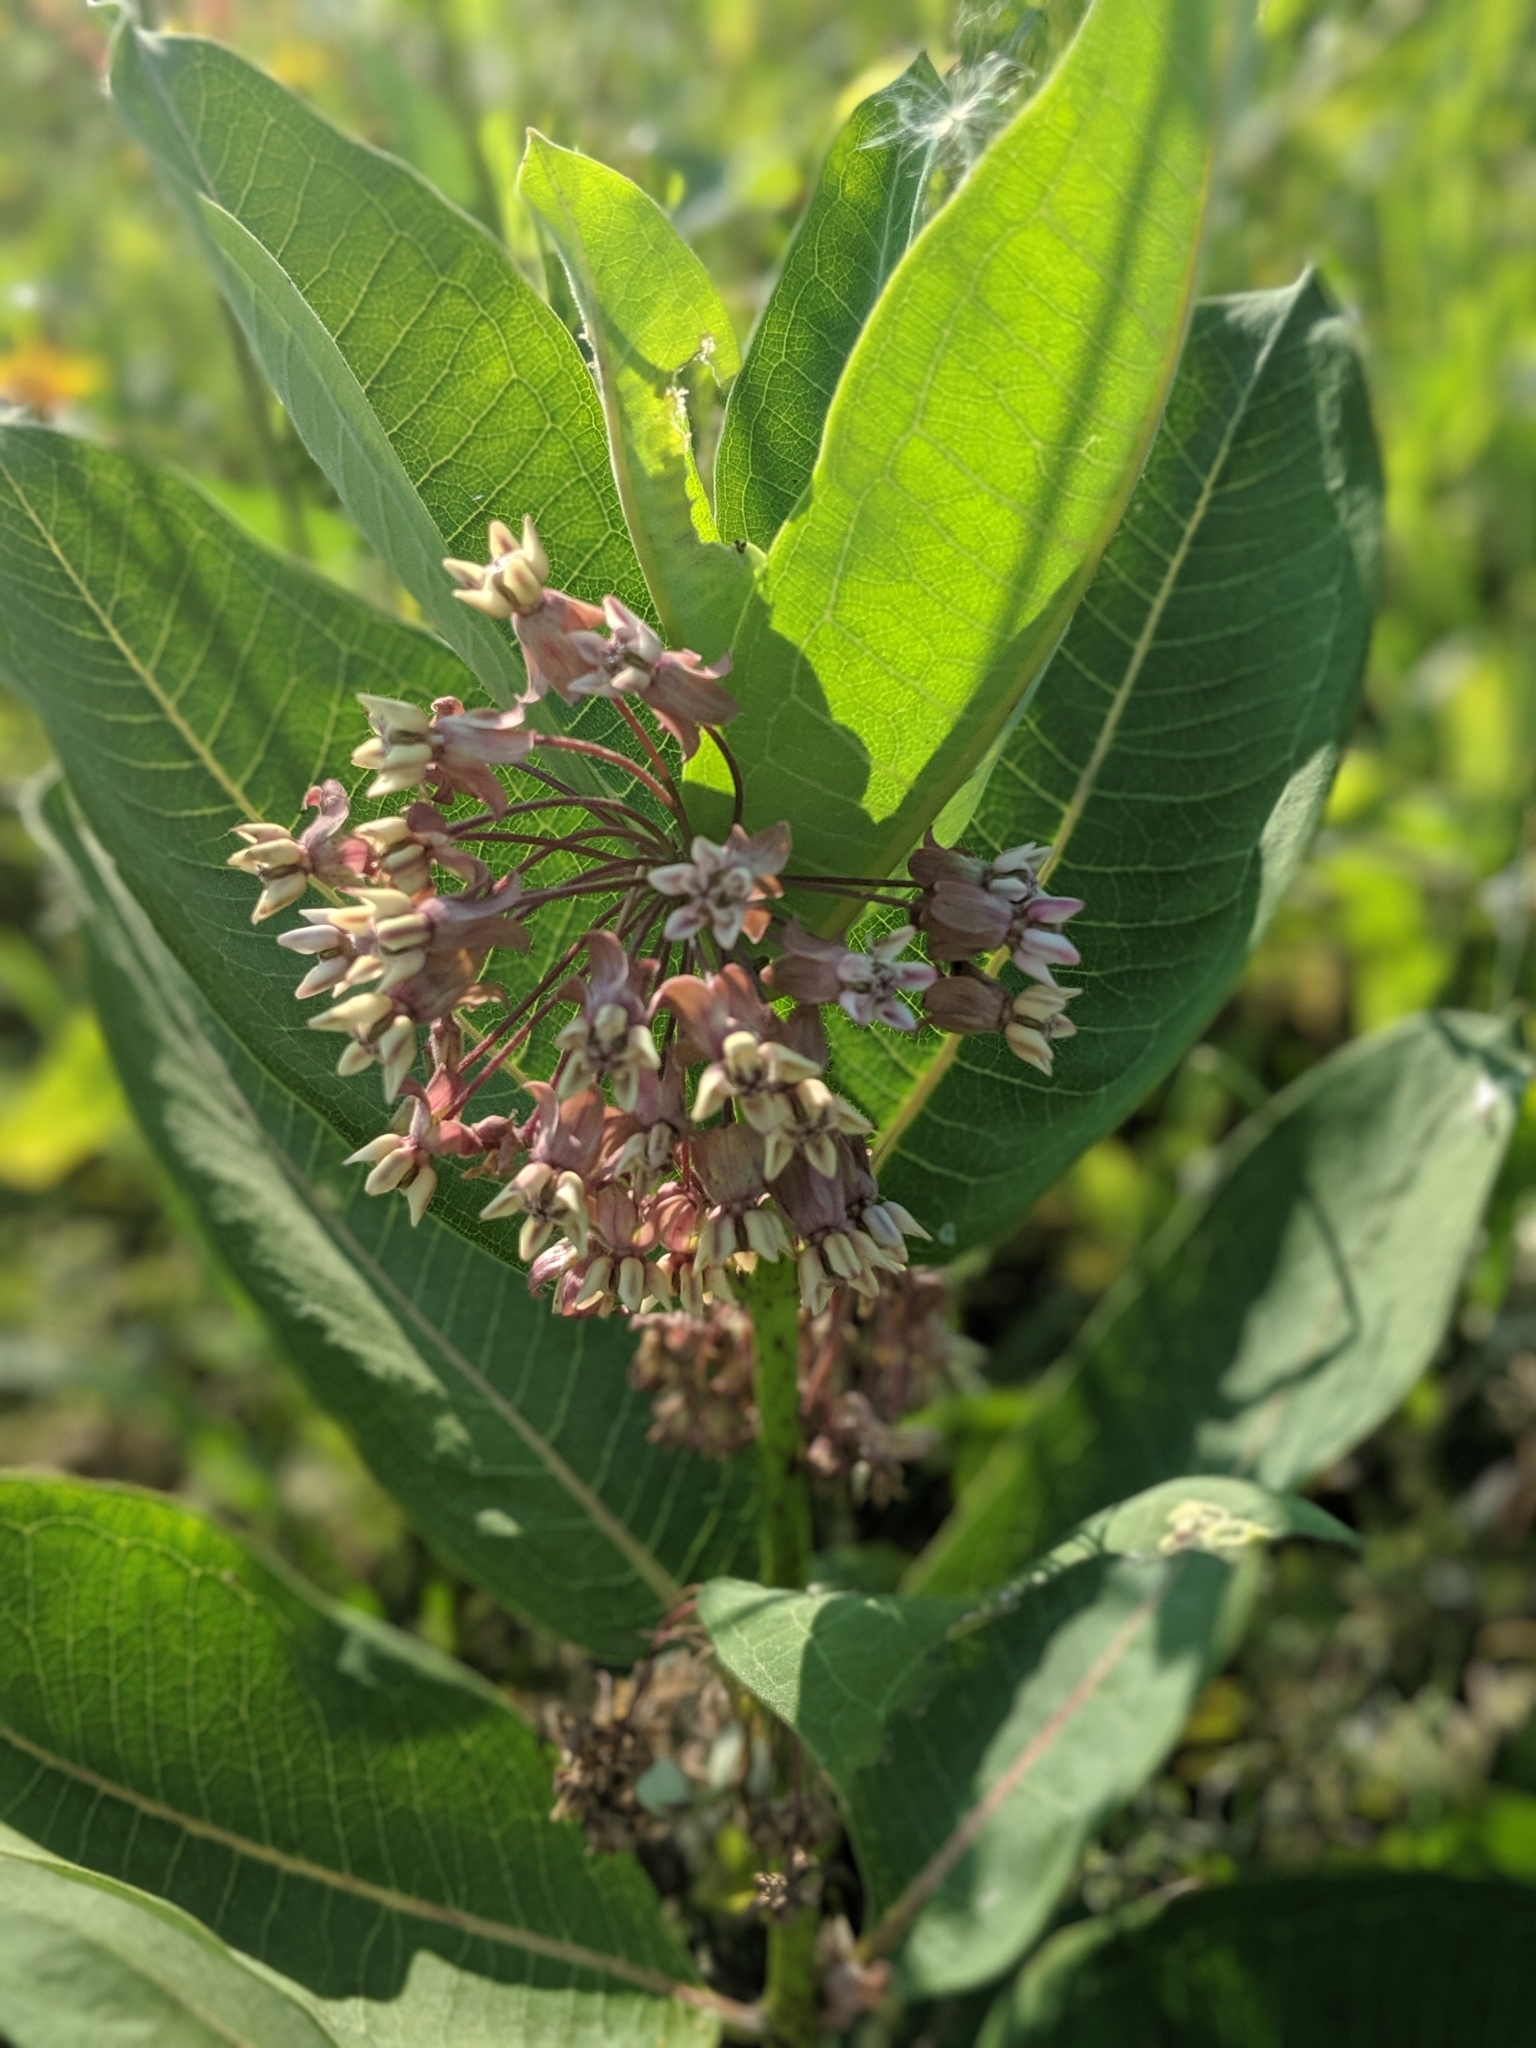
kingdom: Plantae
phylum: Tracheophyta
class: Magnoliopsida
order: Gentianales
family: Apocynaceae
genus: Asclepias
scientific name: Asclepias syriaca
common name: Common milkweed
